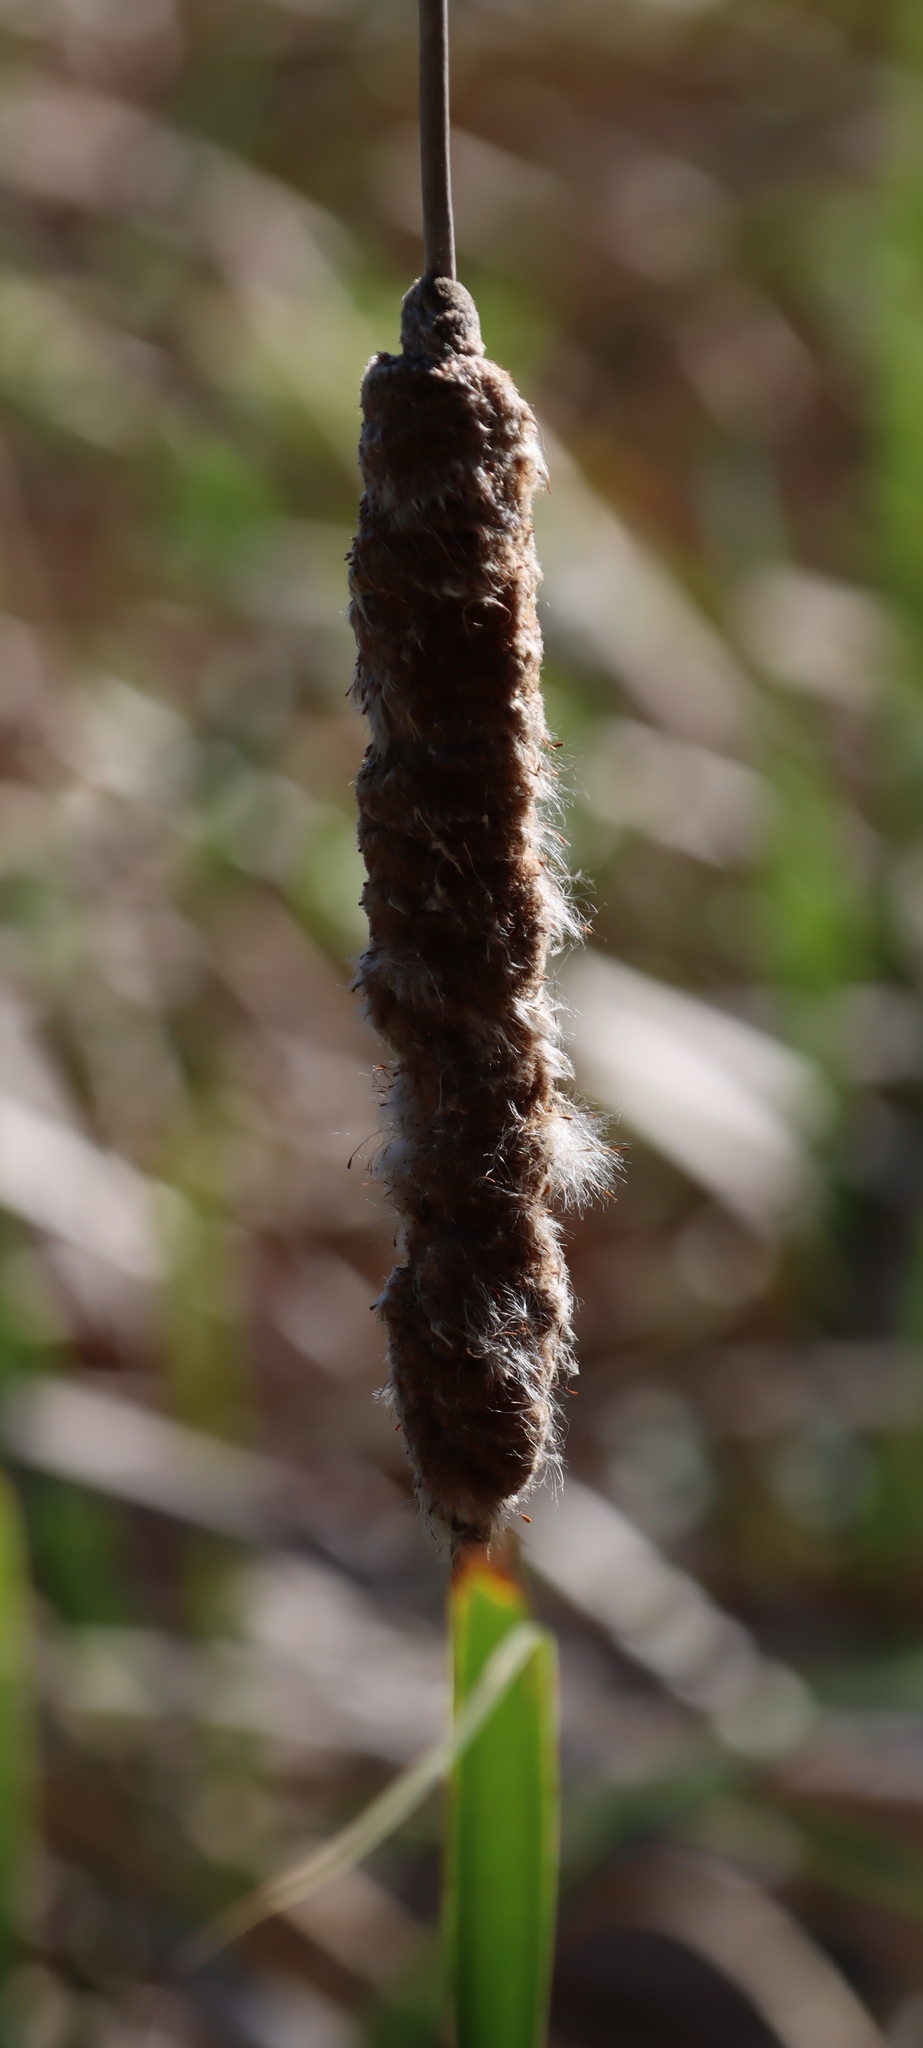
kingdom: Plantae
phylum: Tracheophyta
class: Liliopsida
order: Poales
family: Typhaceae
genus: Typha
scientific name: Typha capensis
